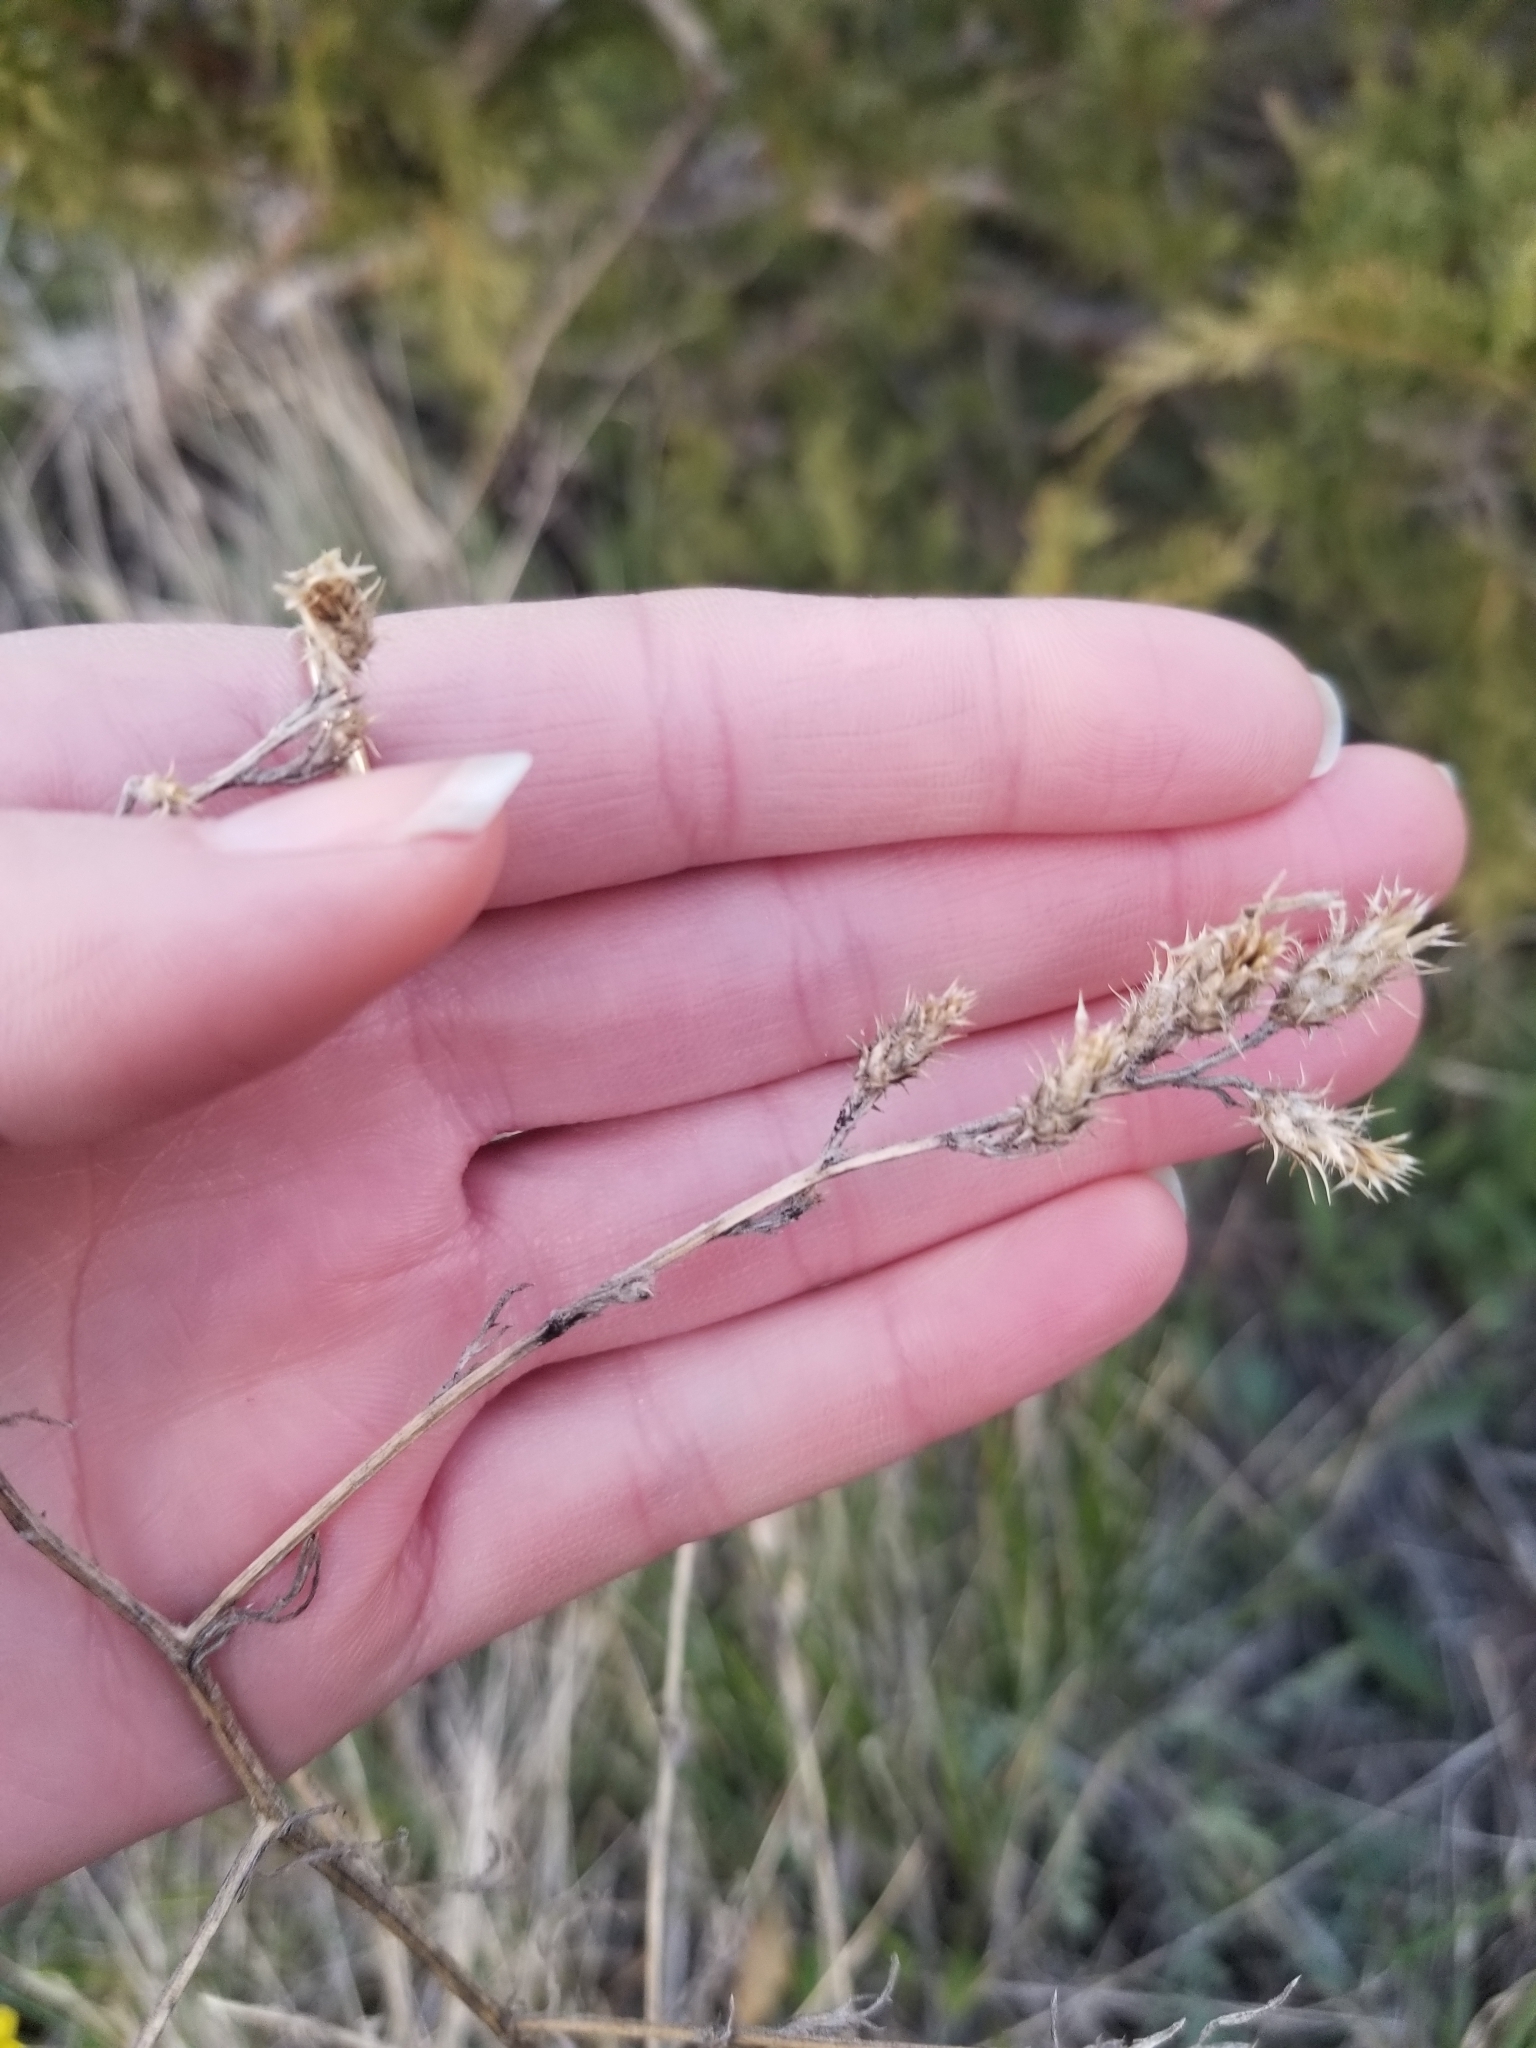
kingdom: Plantae
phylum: Tracheophyta
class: Magnoliopsida
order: Asterales
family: Asteraceae
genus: Centaurea
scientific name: Centaurea diffusa
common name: Diffuse knapweed
